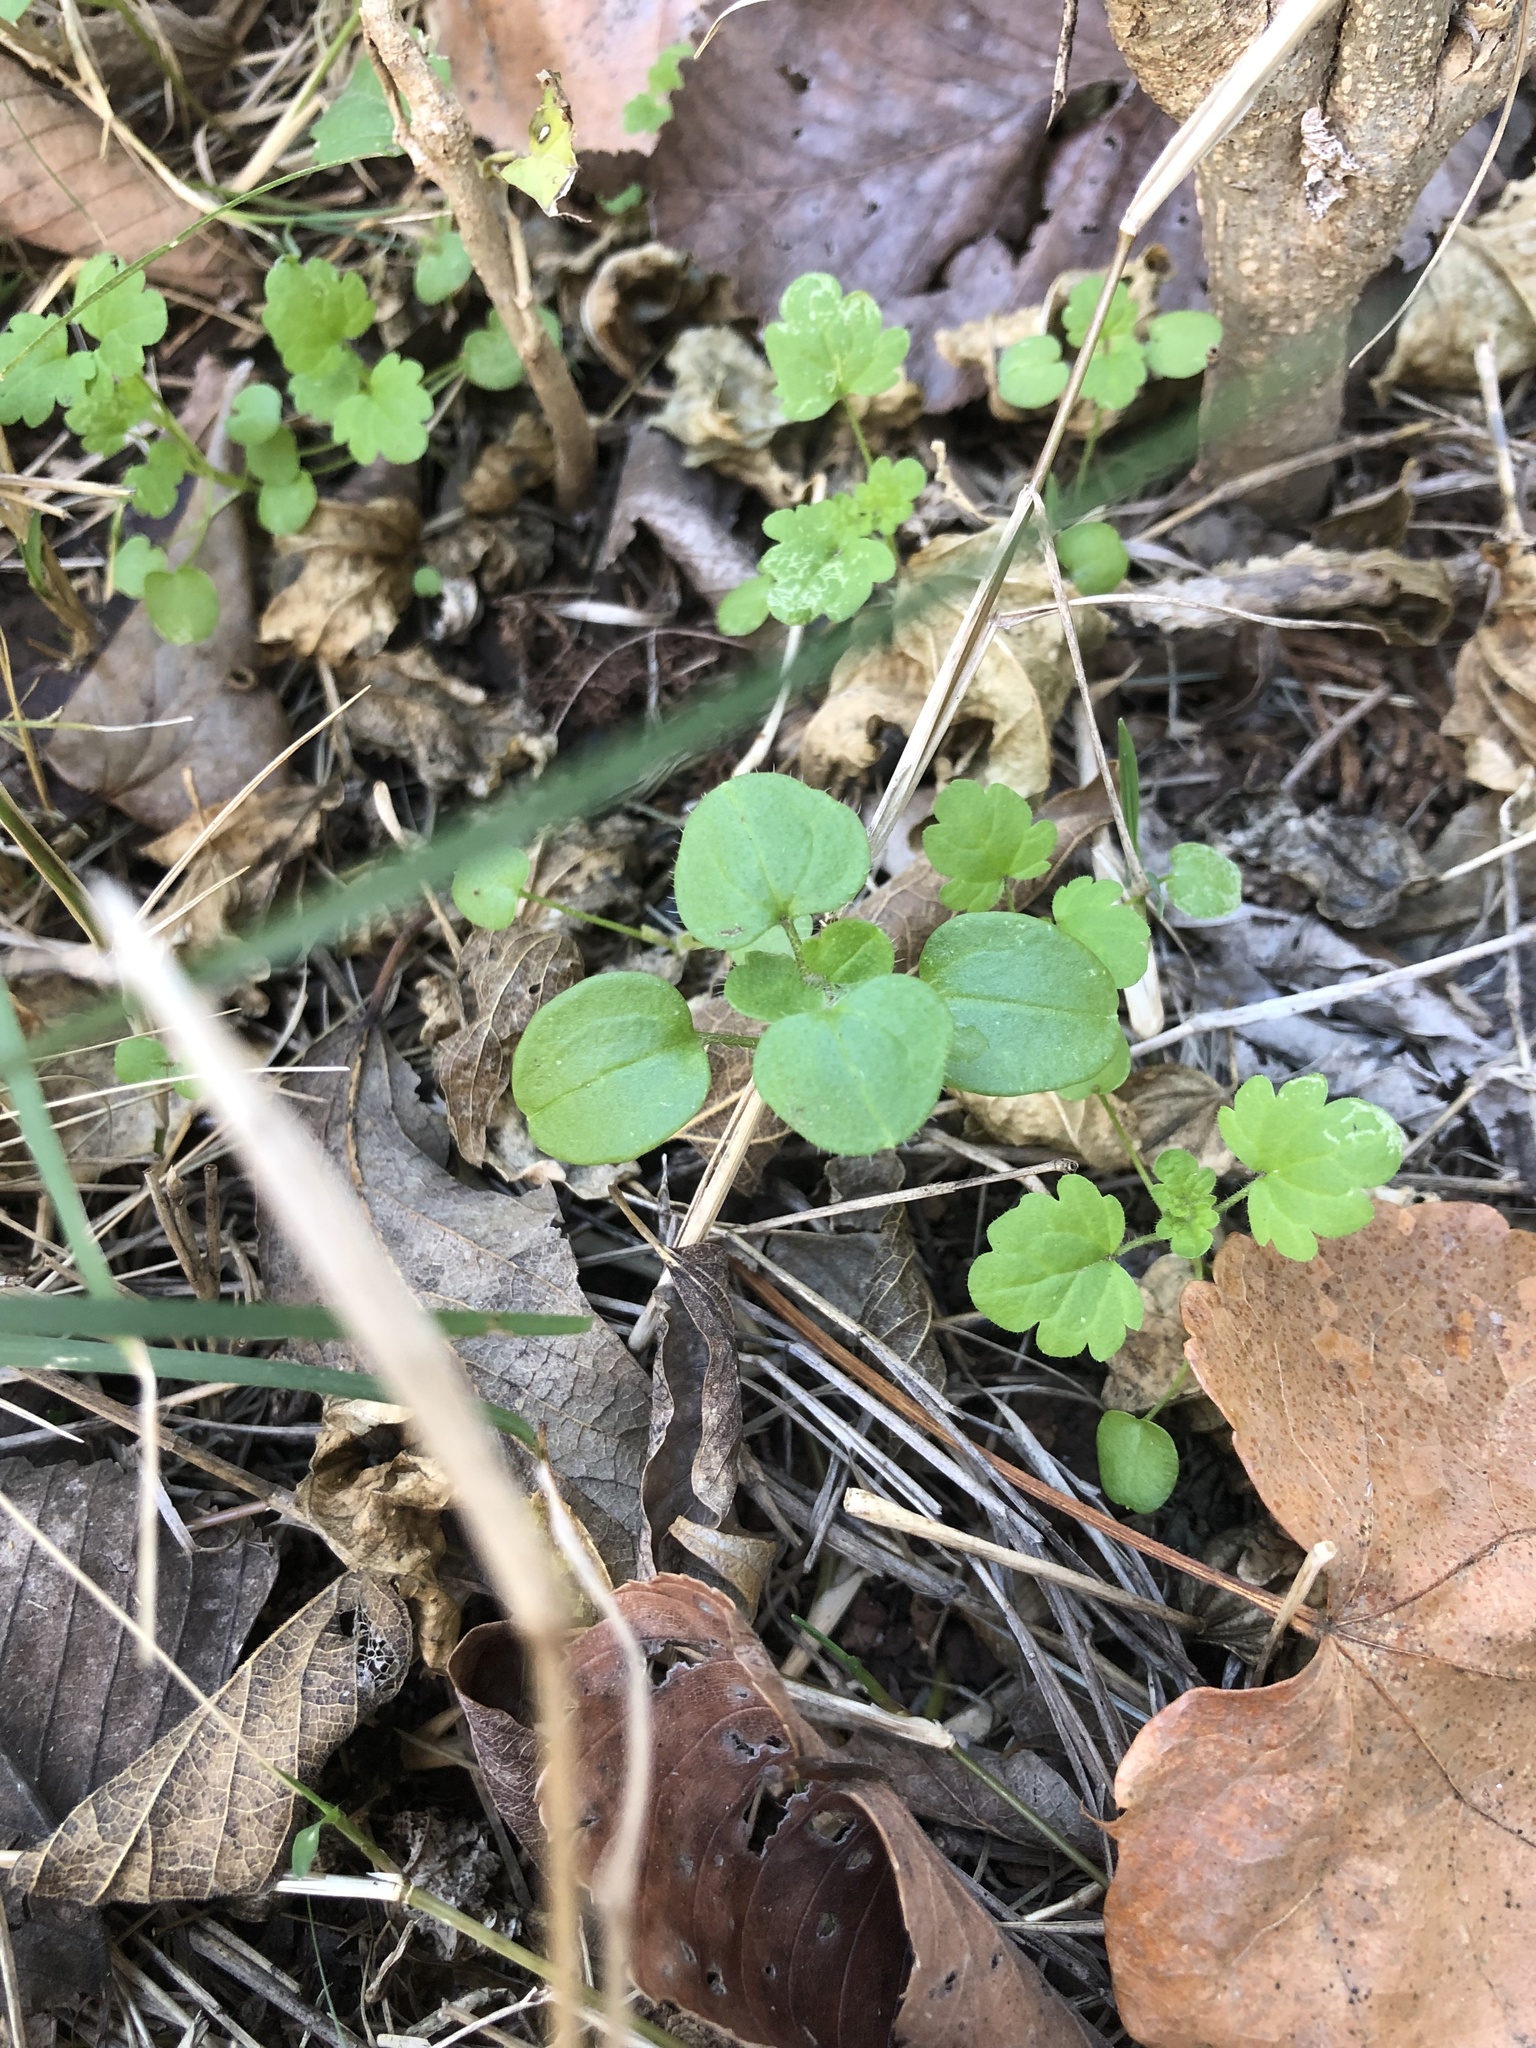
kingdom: Plantae
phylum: Tracheophyta
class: Magnoliopsida
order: Lamiales
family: Plantaginaceae
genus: Veronica
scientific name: Veronica hederifolia
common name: Ivy-leaved speedwell
